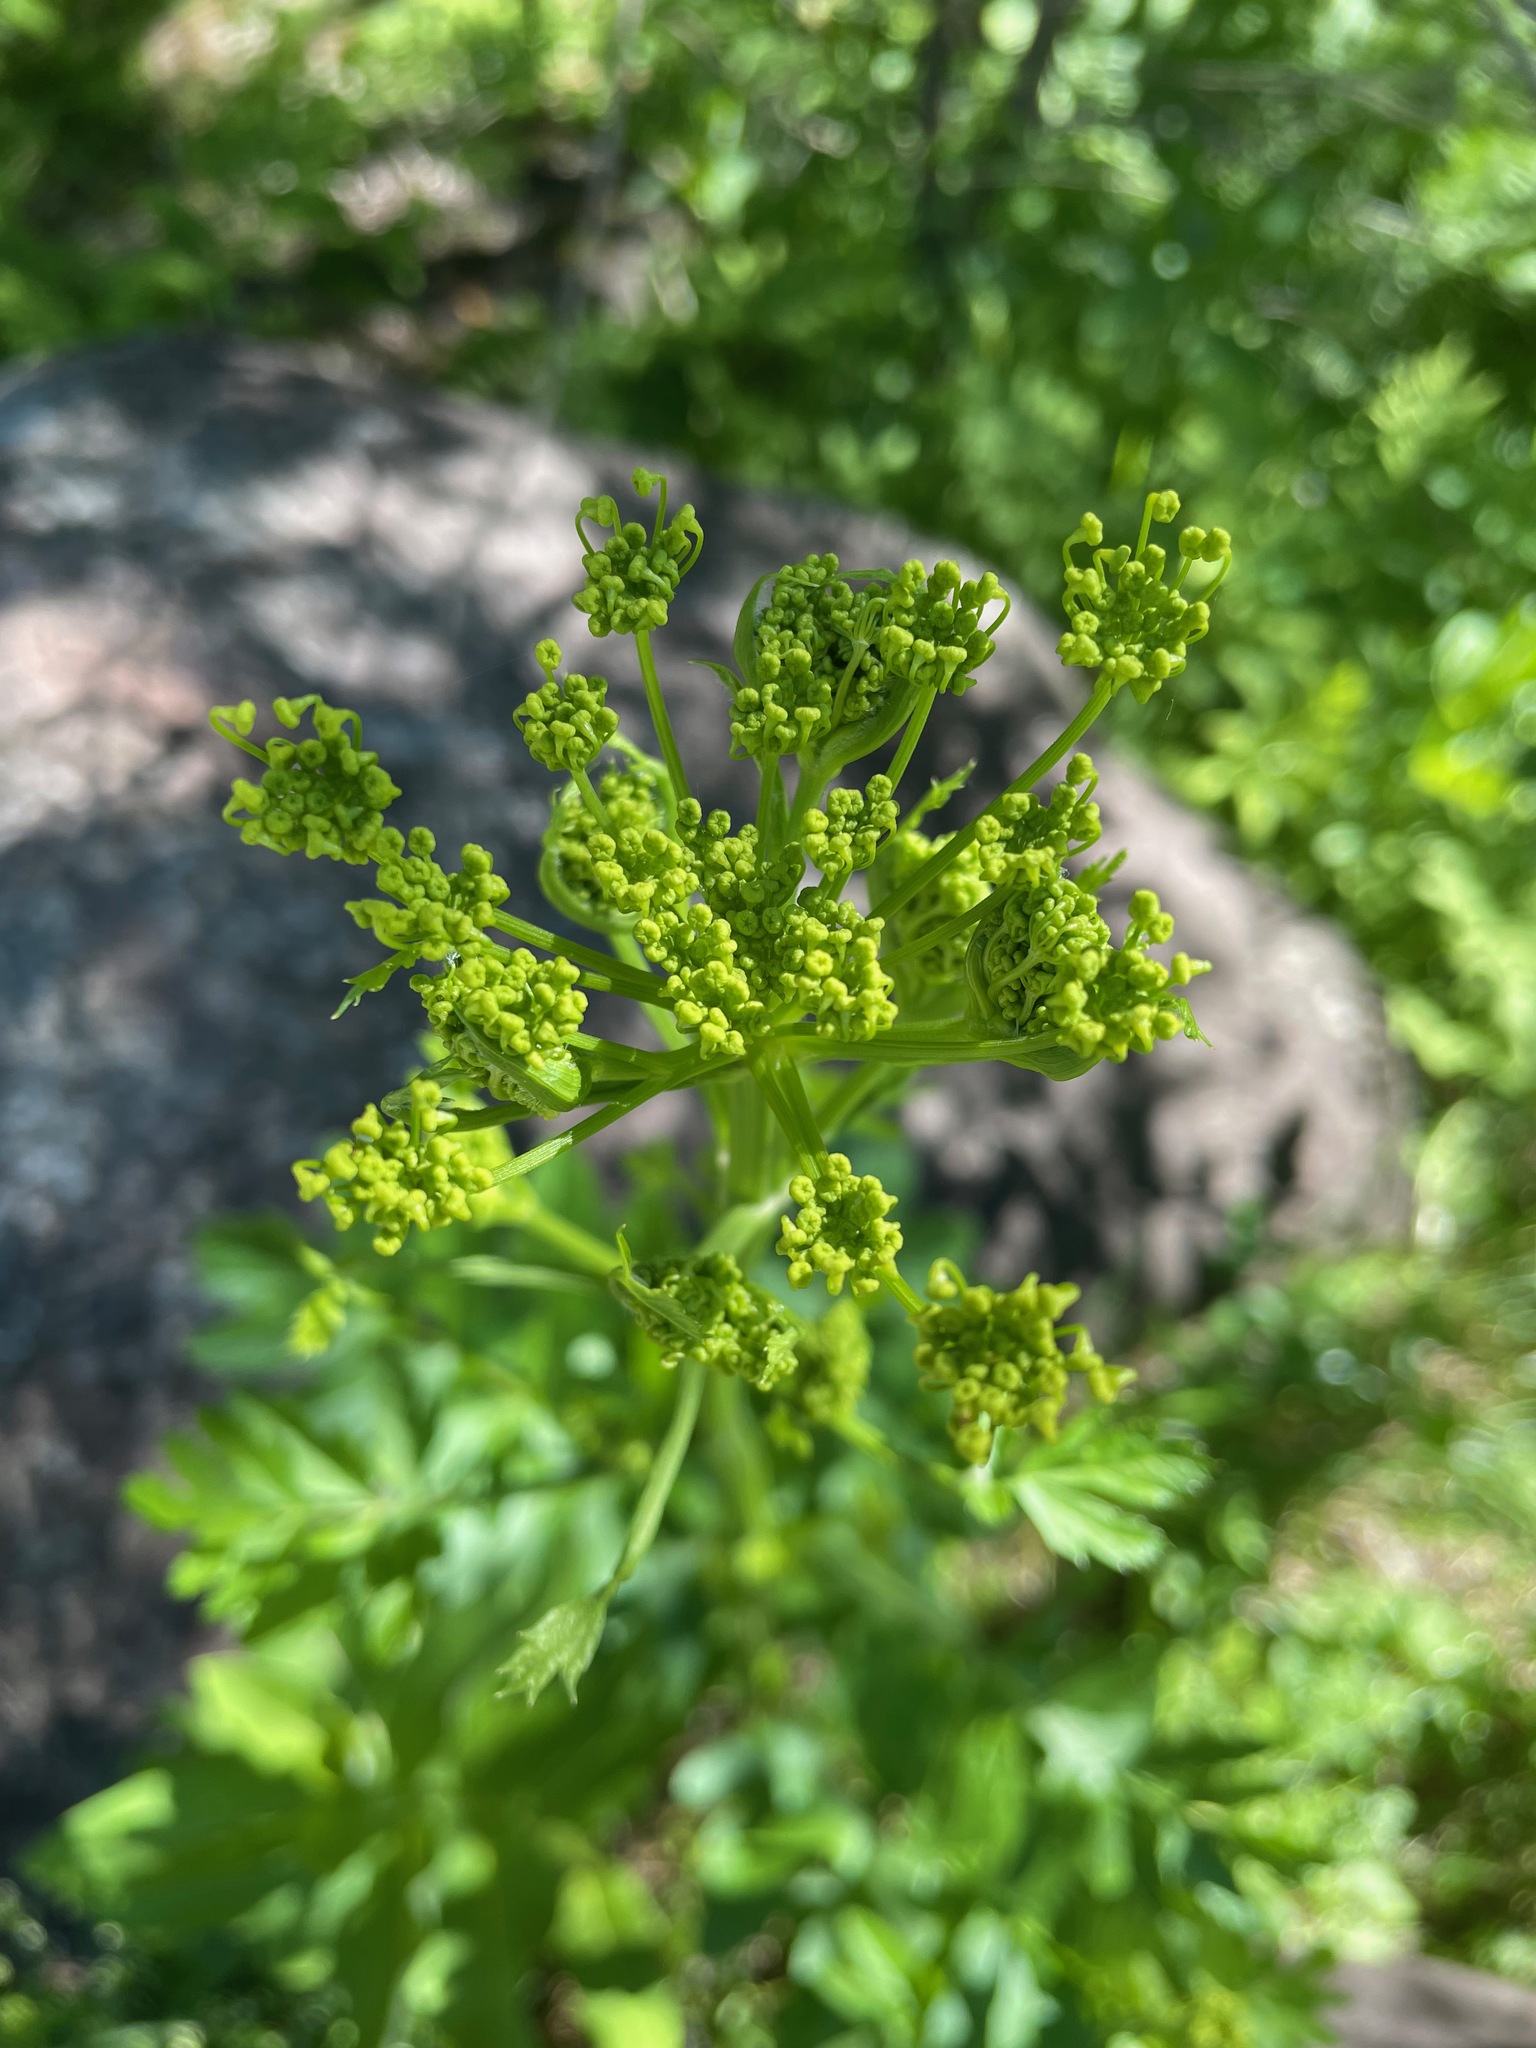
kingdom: Plantae
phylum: Tracheophyta
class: Magnoliopsida
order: Apiales
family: Apiaceae
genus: Pastinaca
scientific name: Pastinaca sativa
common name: Wild parsnip
